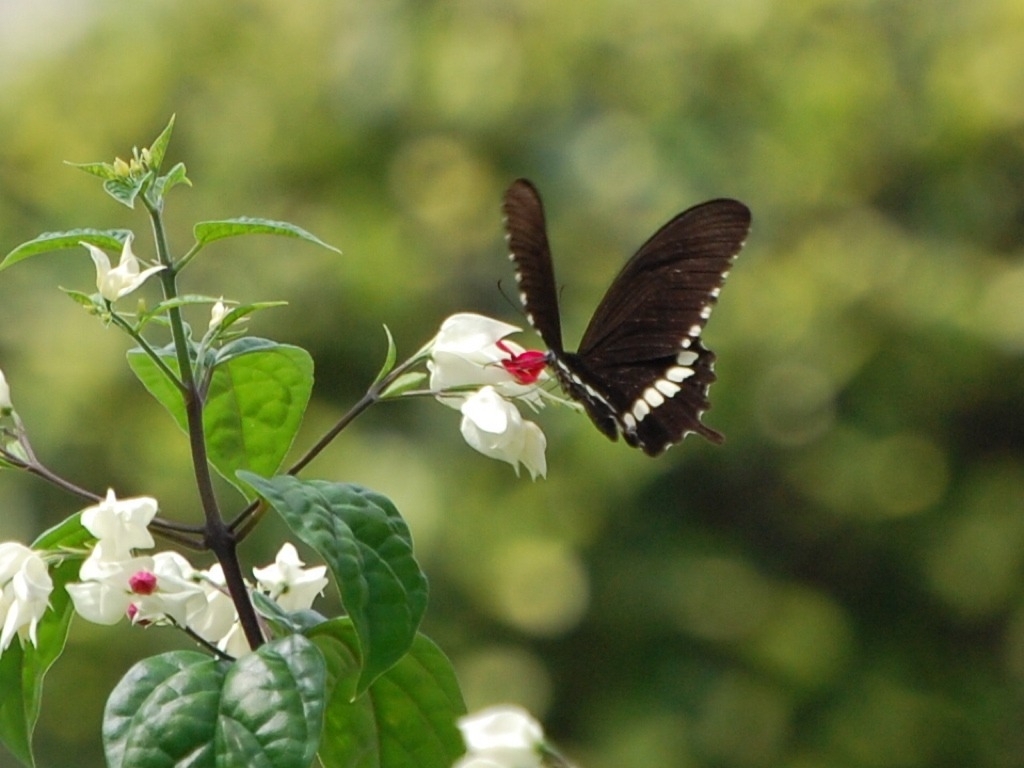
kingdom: Animalia
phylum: Arthropoda
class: Insecta
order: Lepidoptera
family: Papilionidae
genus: Papilio
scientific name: Papilio polytes
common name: Common mormon
